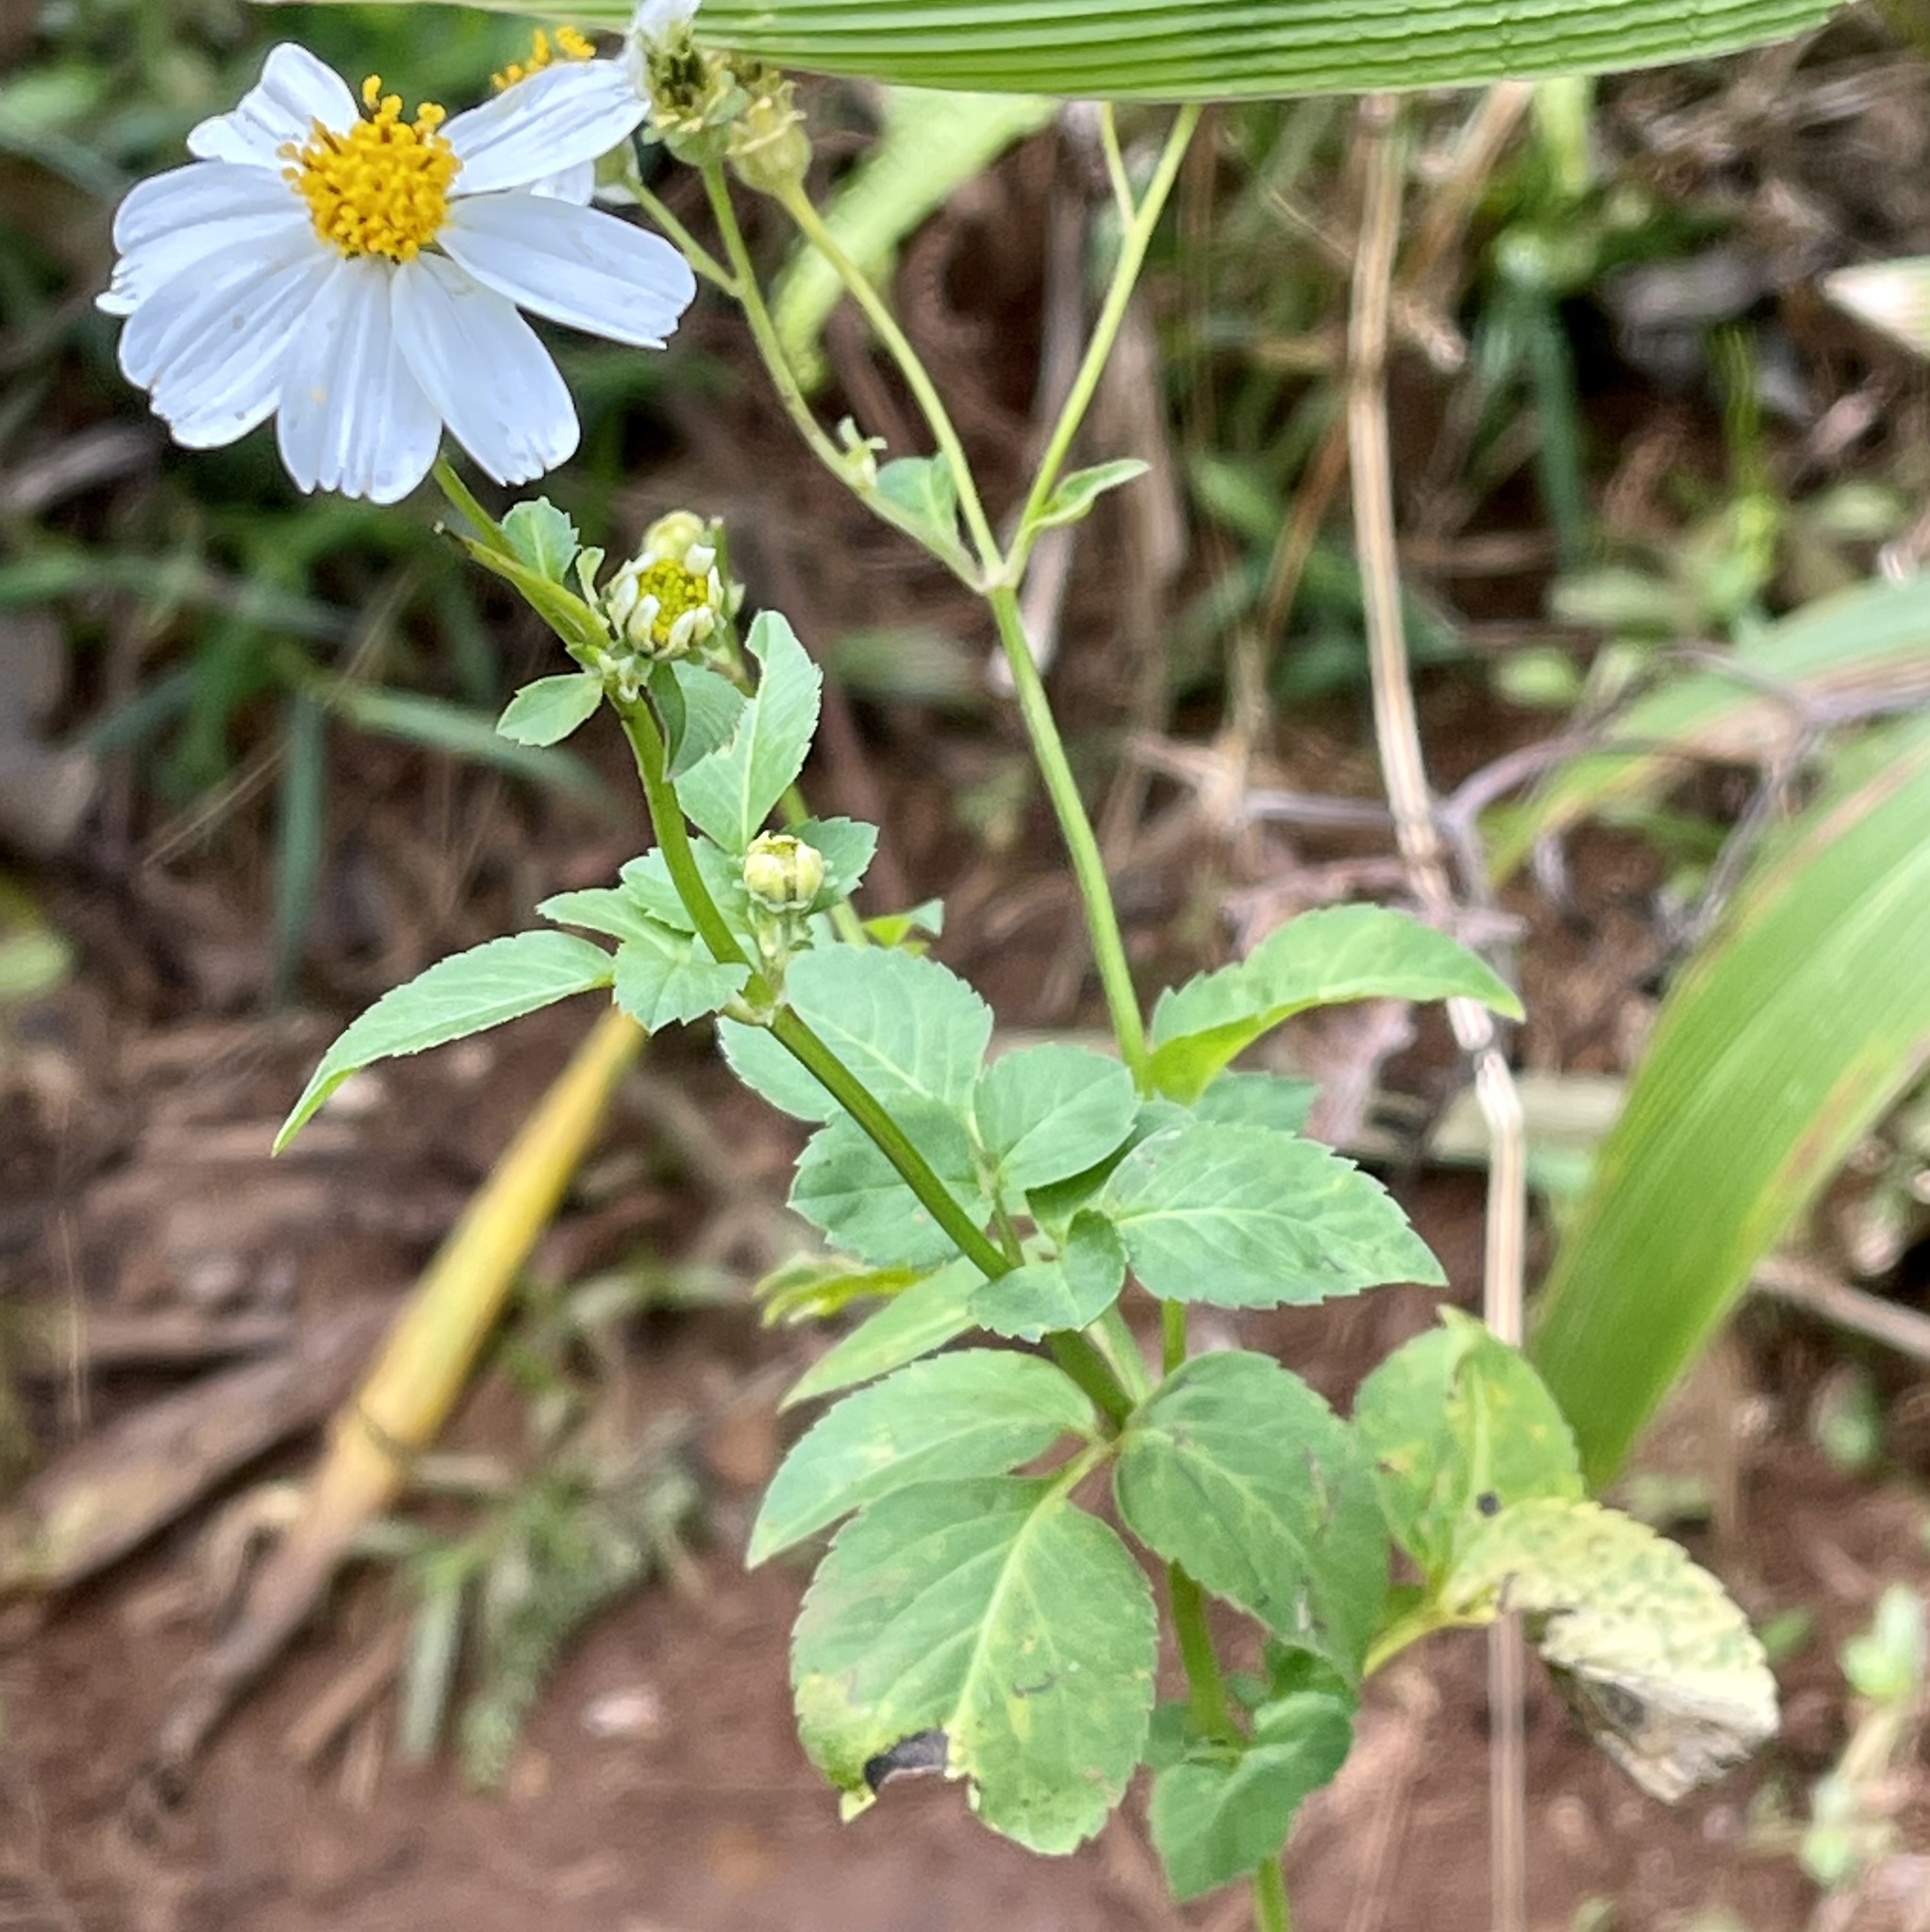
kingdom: Plantae
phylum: Tracheophyta
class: Magnoliopsida
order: Asterales
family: Asteraceae
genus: Bidens
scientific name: Bidens alba
